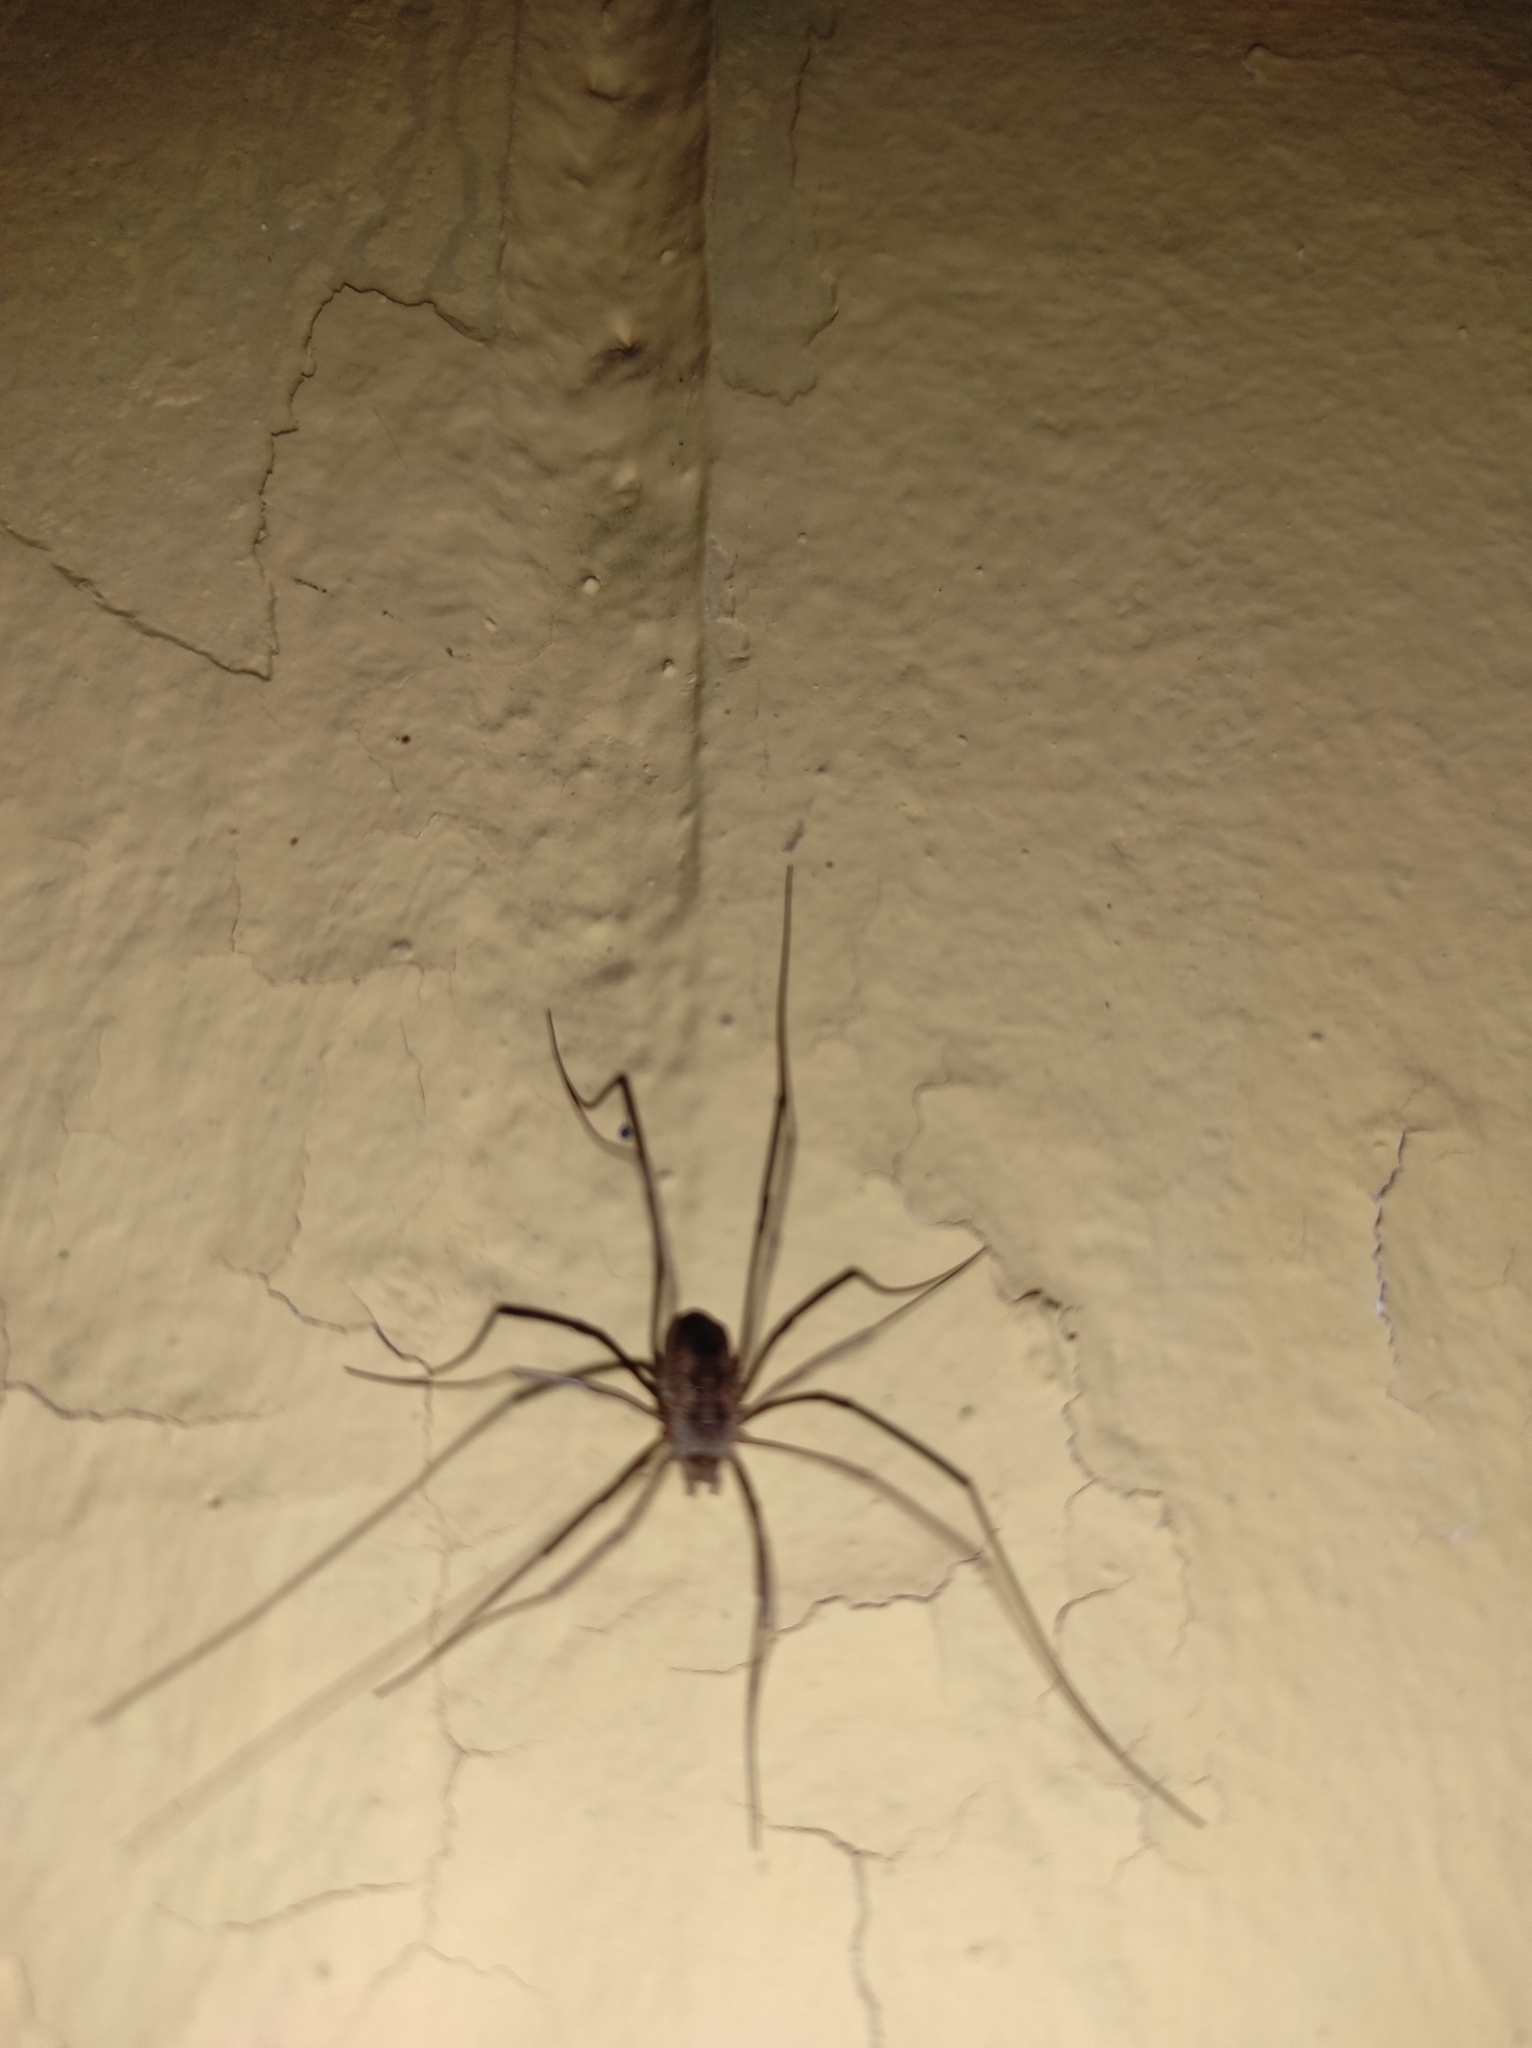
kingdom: Animalia
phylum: Arthropoda
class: Arachnida
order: Opiliones
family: Phalangiidae
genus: Phalangium
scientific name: Phalangium opilio
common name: Daddy longleg
